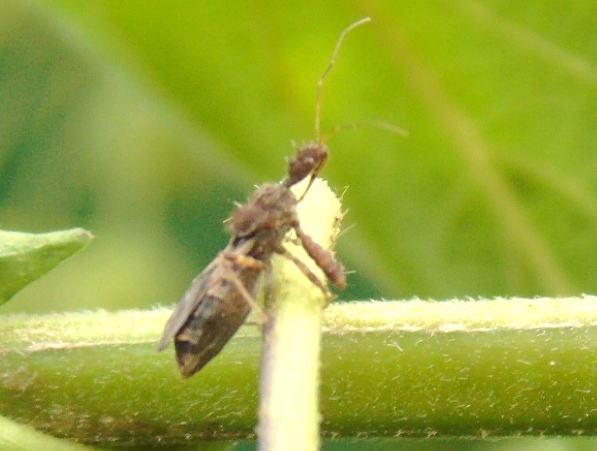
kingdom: Animalia
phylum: Arthropoda
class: Insecta
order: Hemiptera
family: Reduviidae
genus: Sinea
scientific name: Sinea
